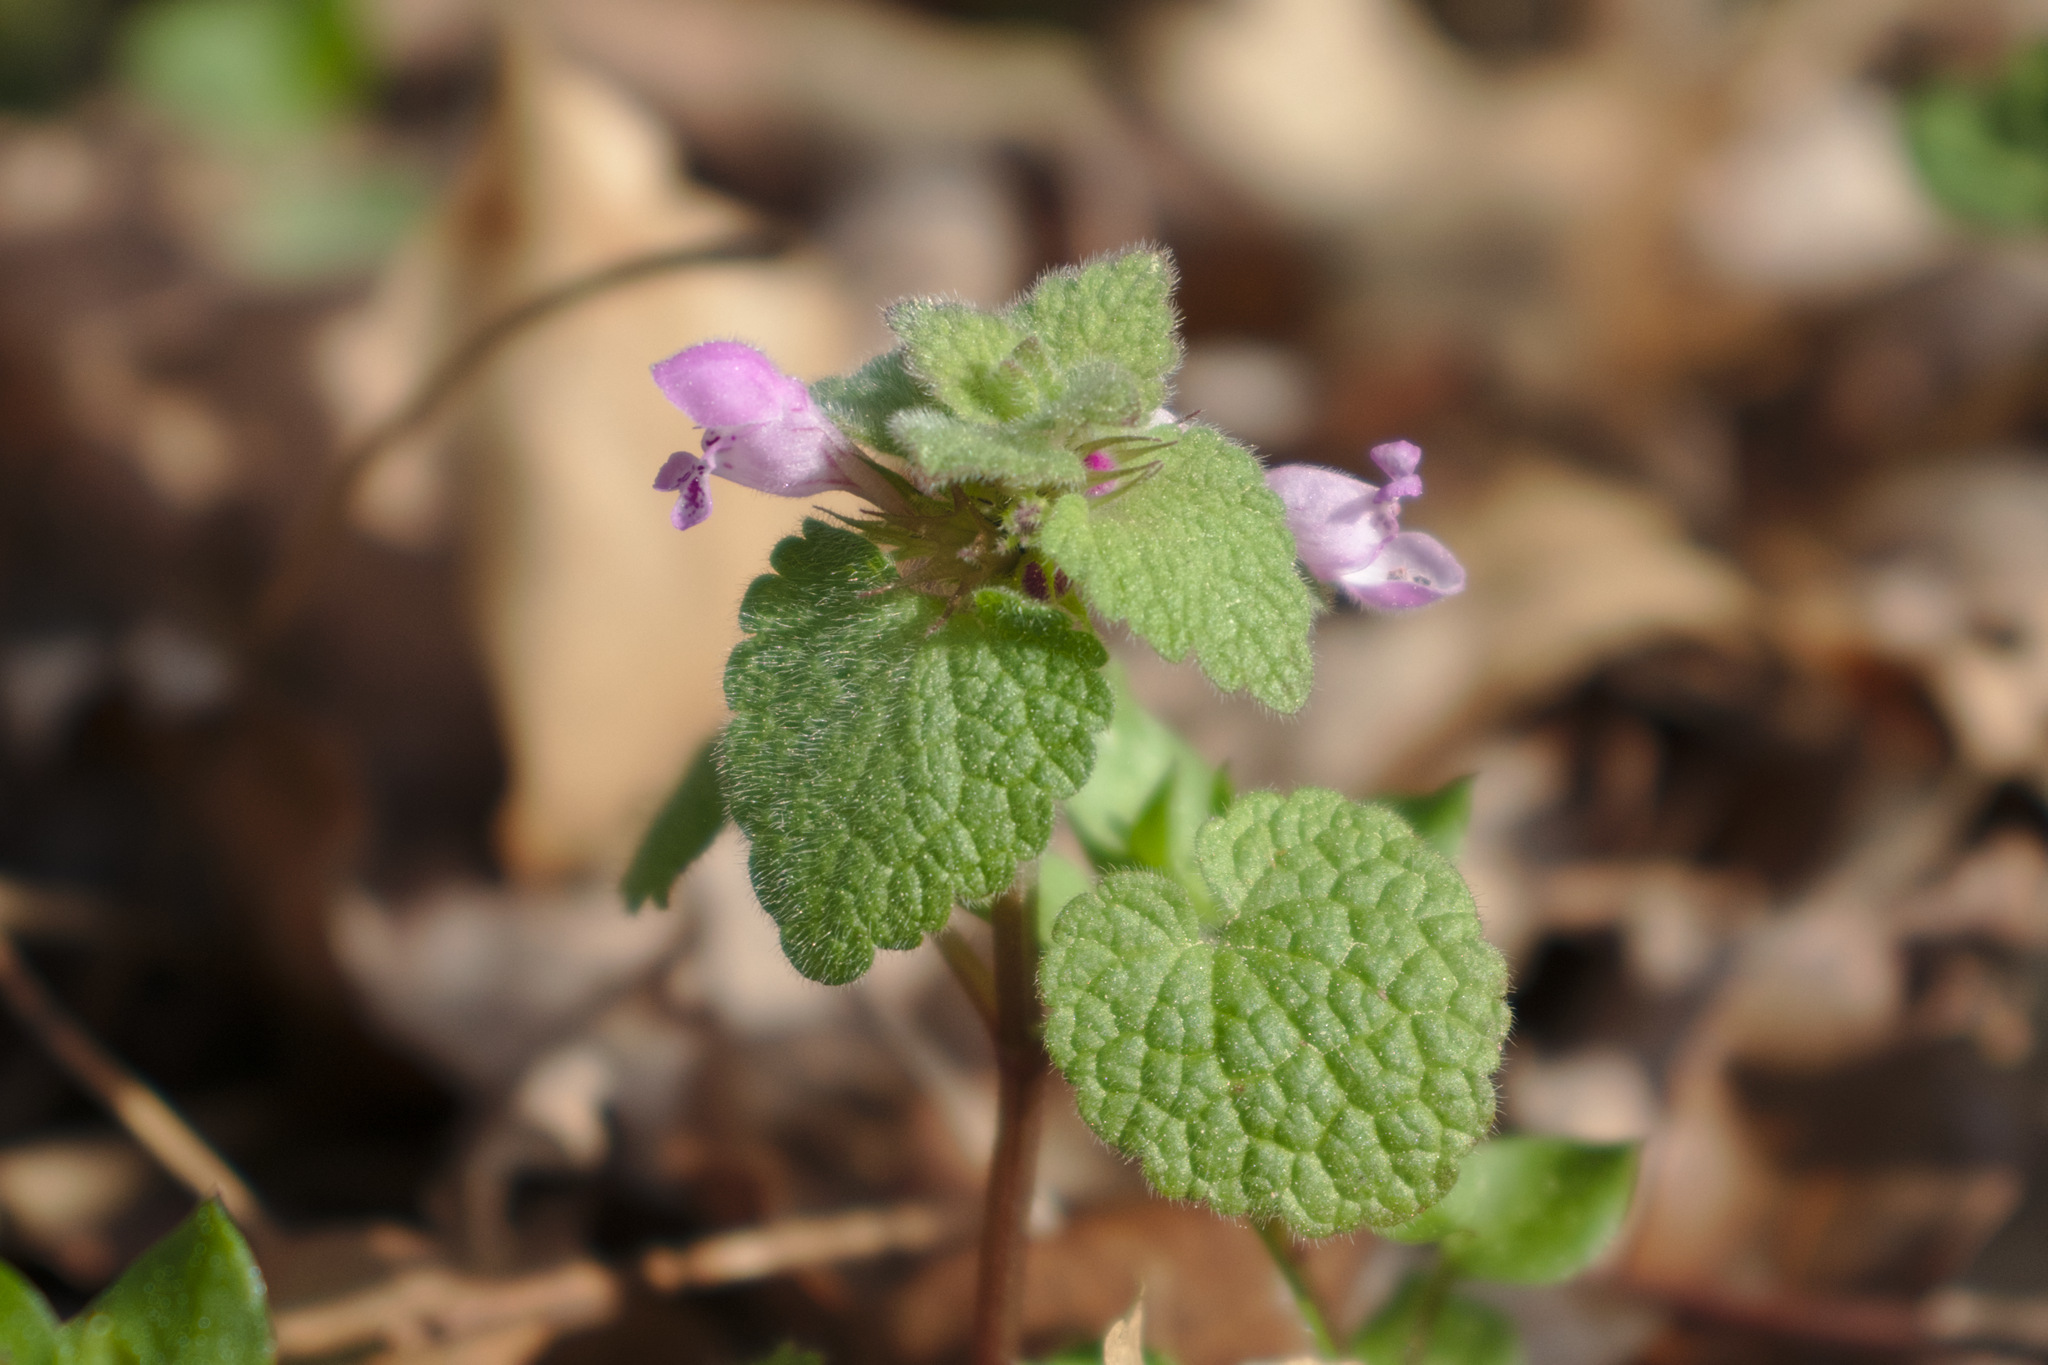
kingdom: Plantae
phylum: Tracheophyta
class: Magnoliopsida
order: Lamiales
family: Lamiaceae
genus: Lamium
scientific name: Lamium purpureum
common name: Red dead-nettle
